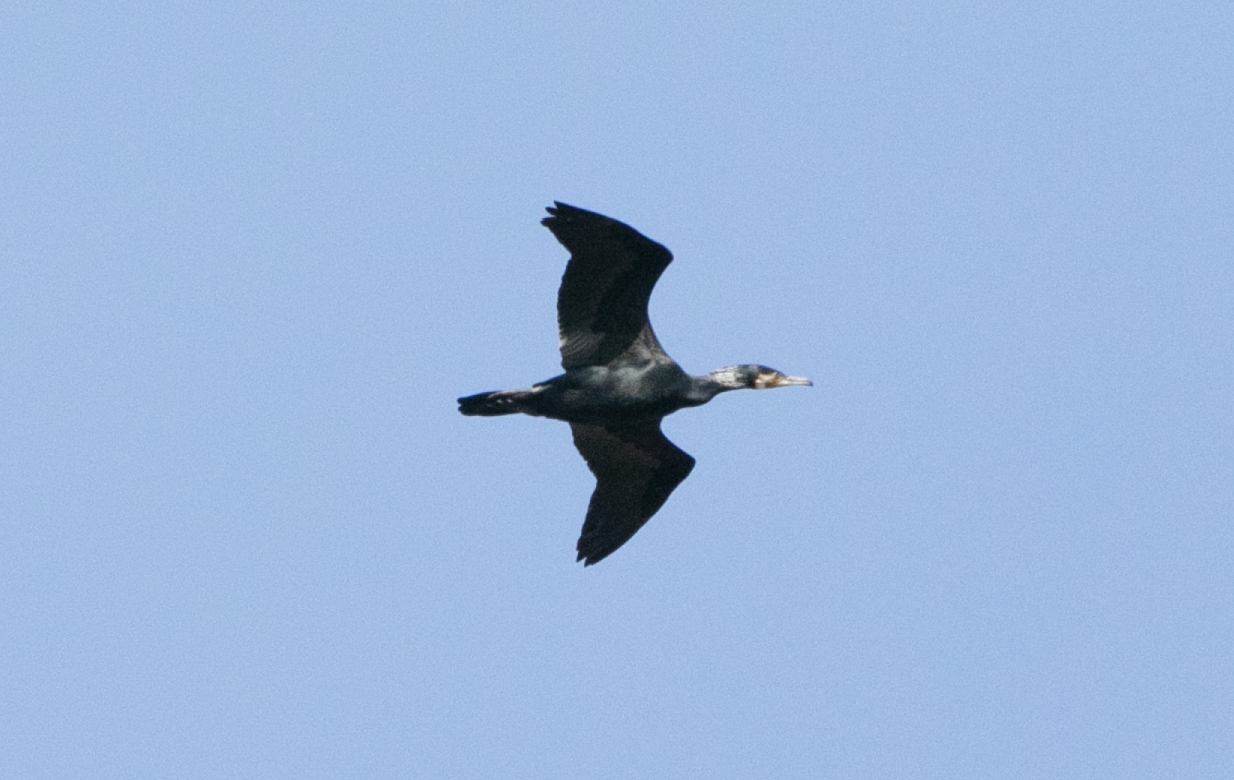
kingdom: Animalia
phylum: Chordata
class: Aves
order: Suliformes
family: Phalacrocoracidae
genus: Phalacrocorax
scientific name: Phalacrocorax carbo
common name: Great cormorant
